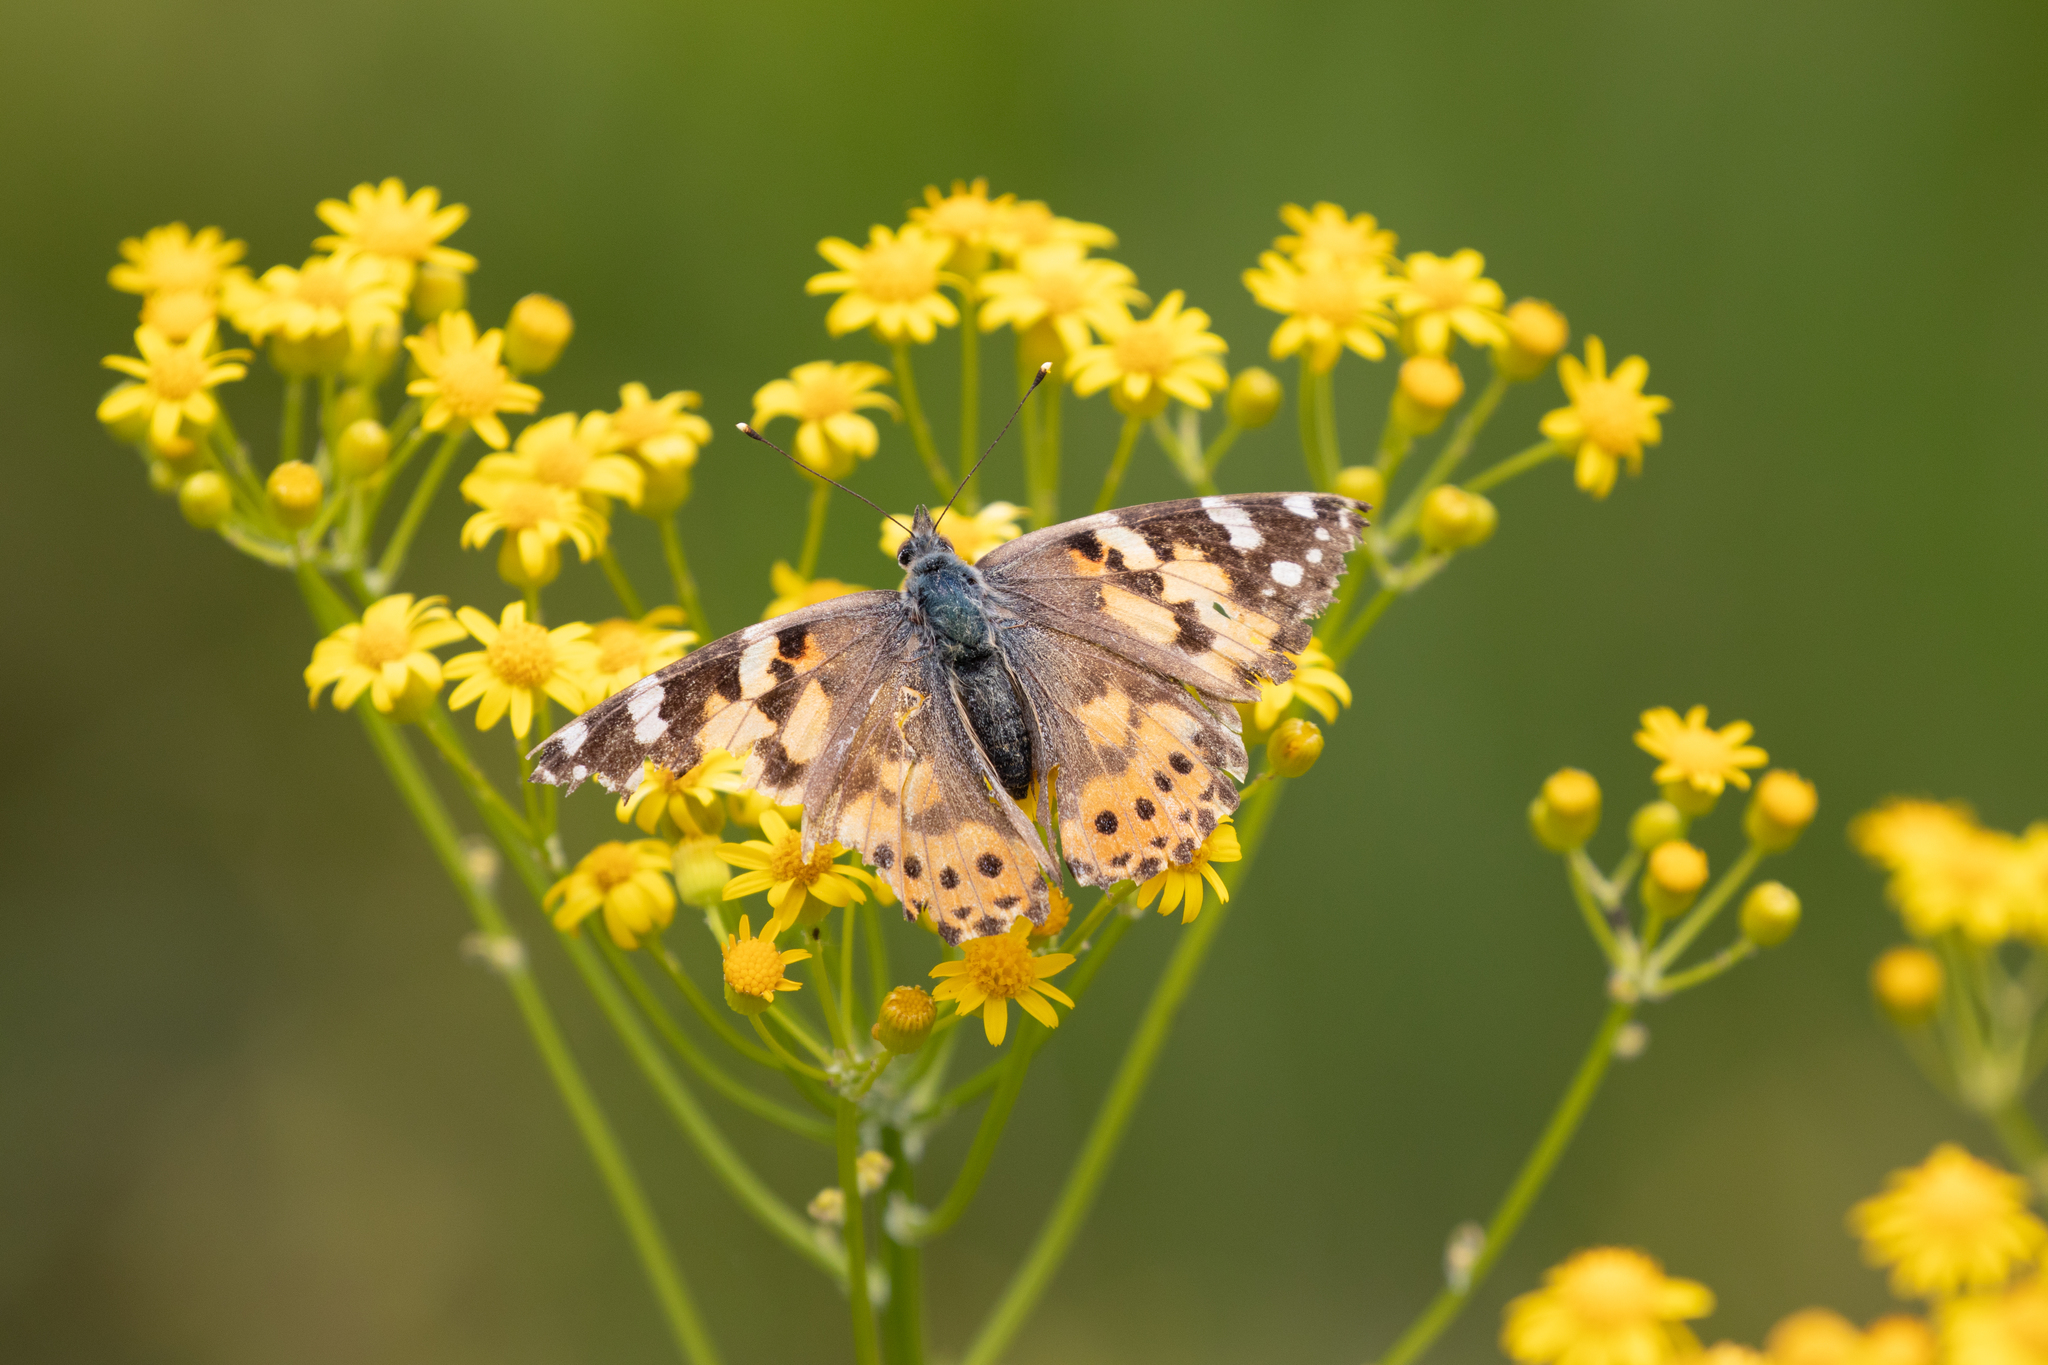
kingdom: Animalia
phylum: Arthropoda
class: Insecta
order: Lepidoptera
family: Nymphalidae
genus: Vanessa
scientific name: Vanessa cardui
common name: Painted lady
